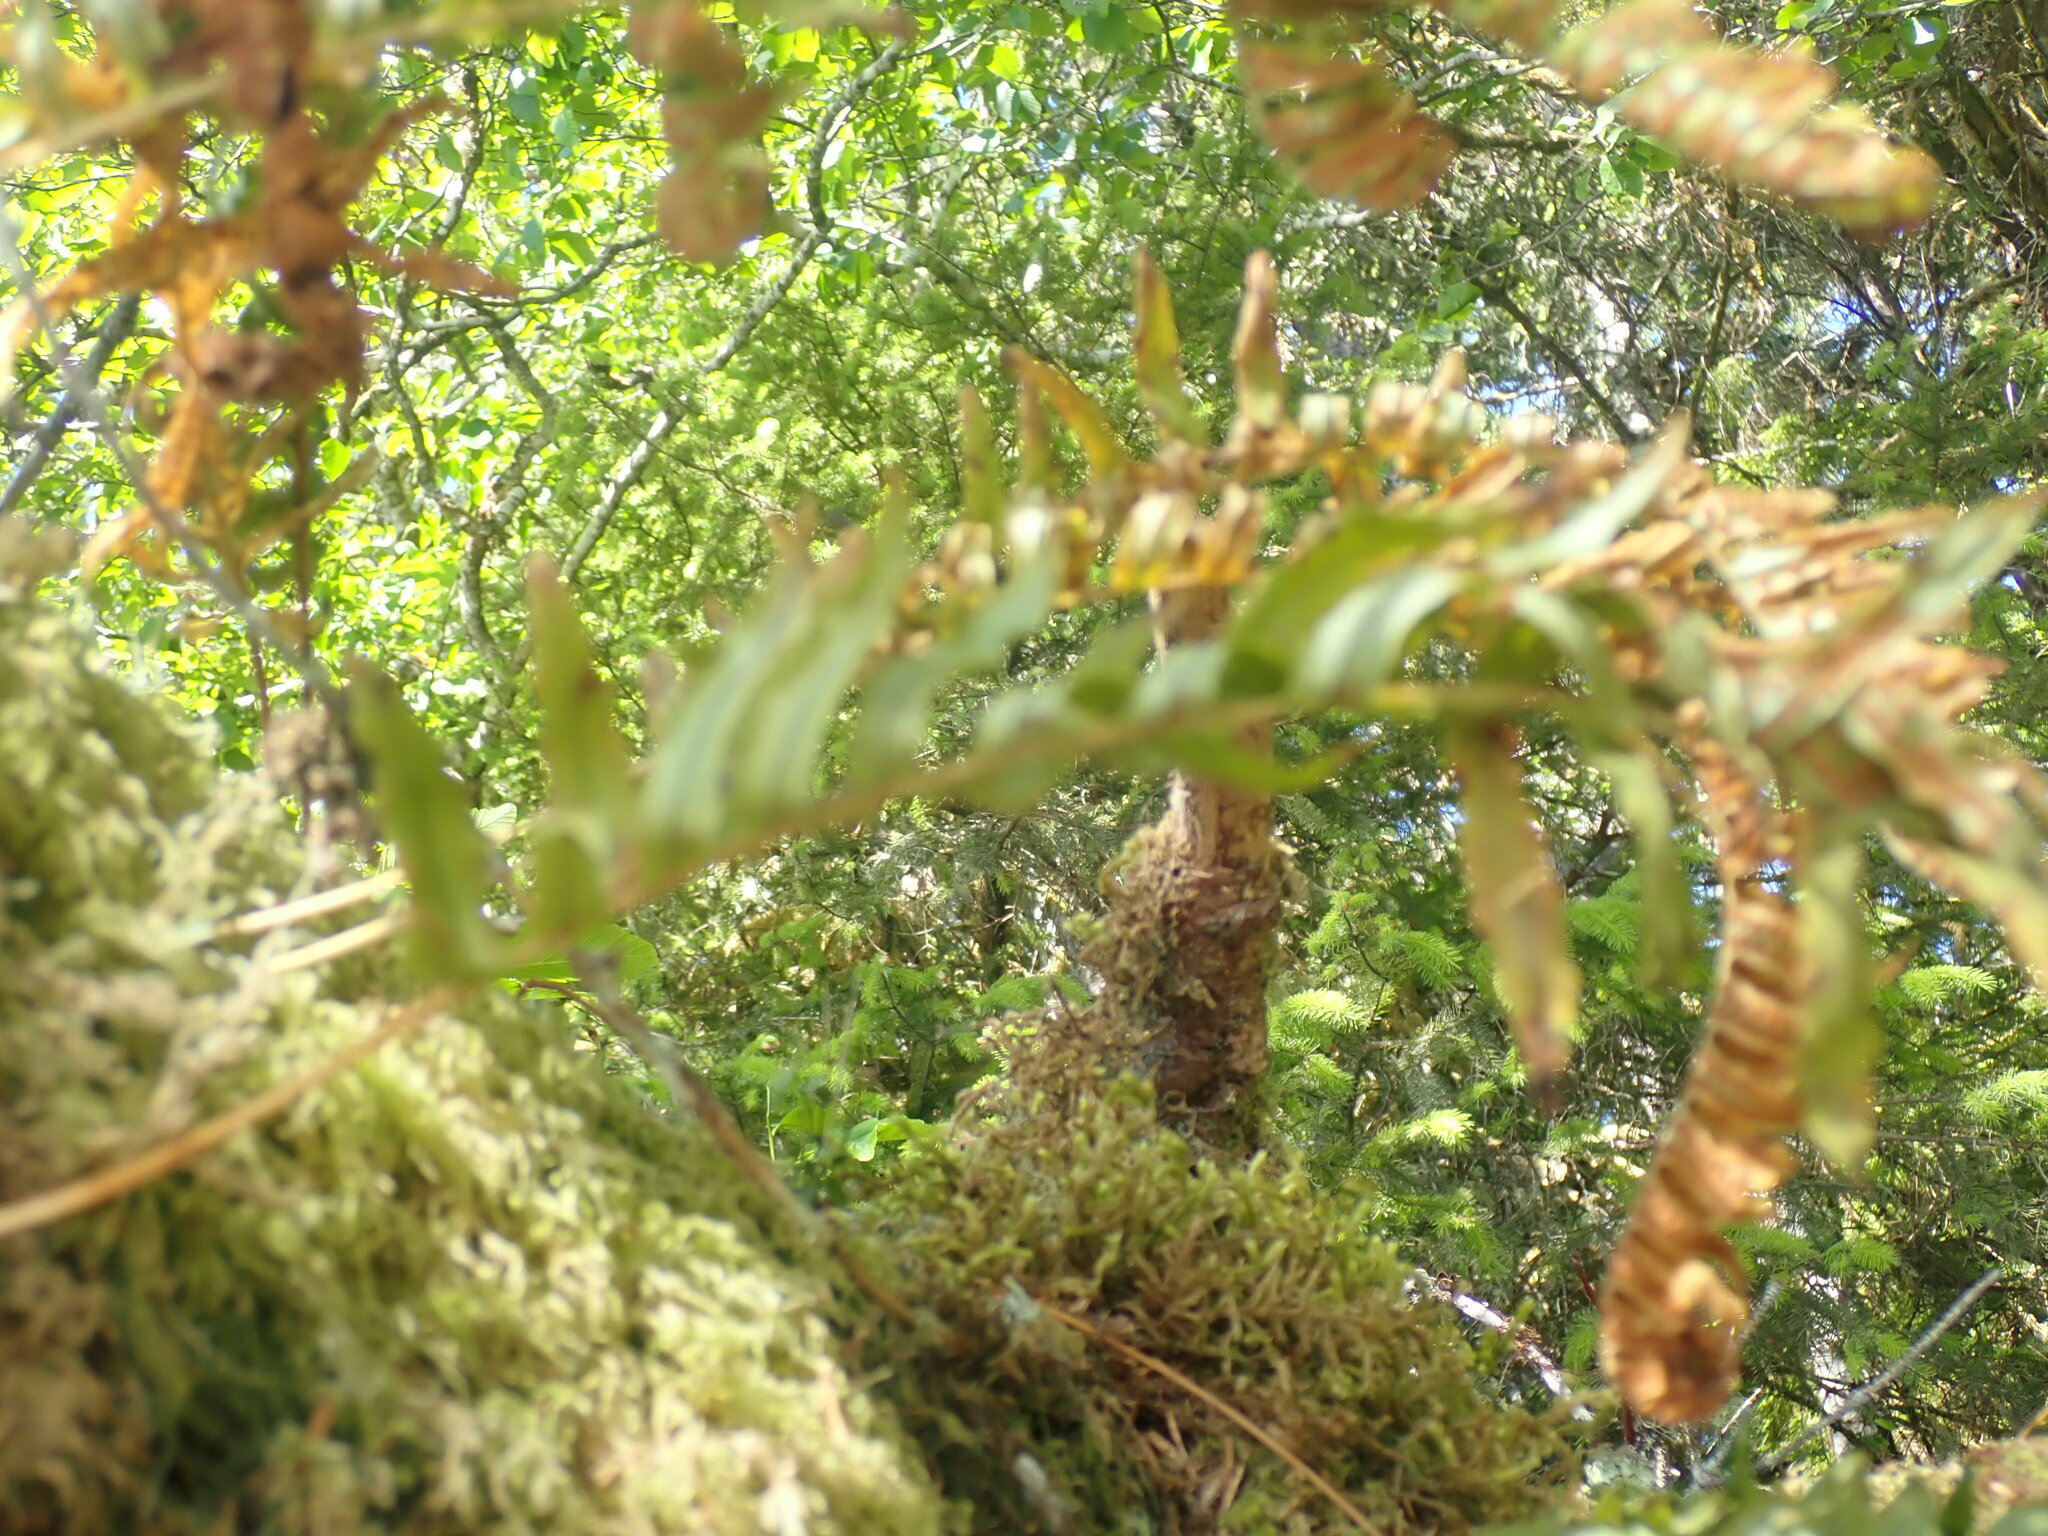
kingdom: Plantae
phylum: Tracheophyta
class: Polypodiopsida
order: Polypodiales
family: Polypodiaceae
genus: Polypodium
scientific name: Polypodium glycyrrhiza
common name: Licorice fern
